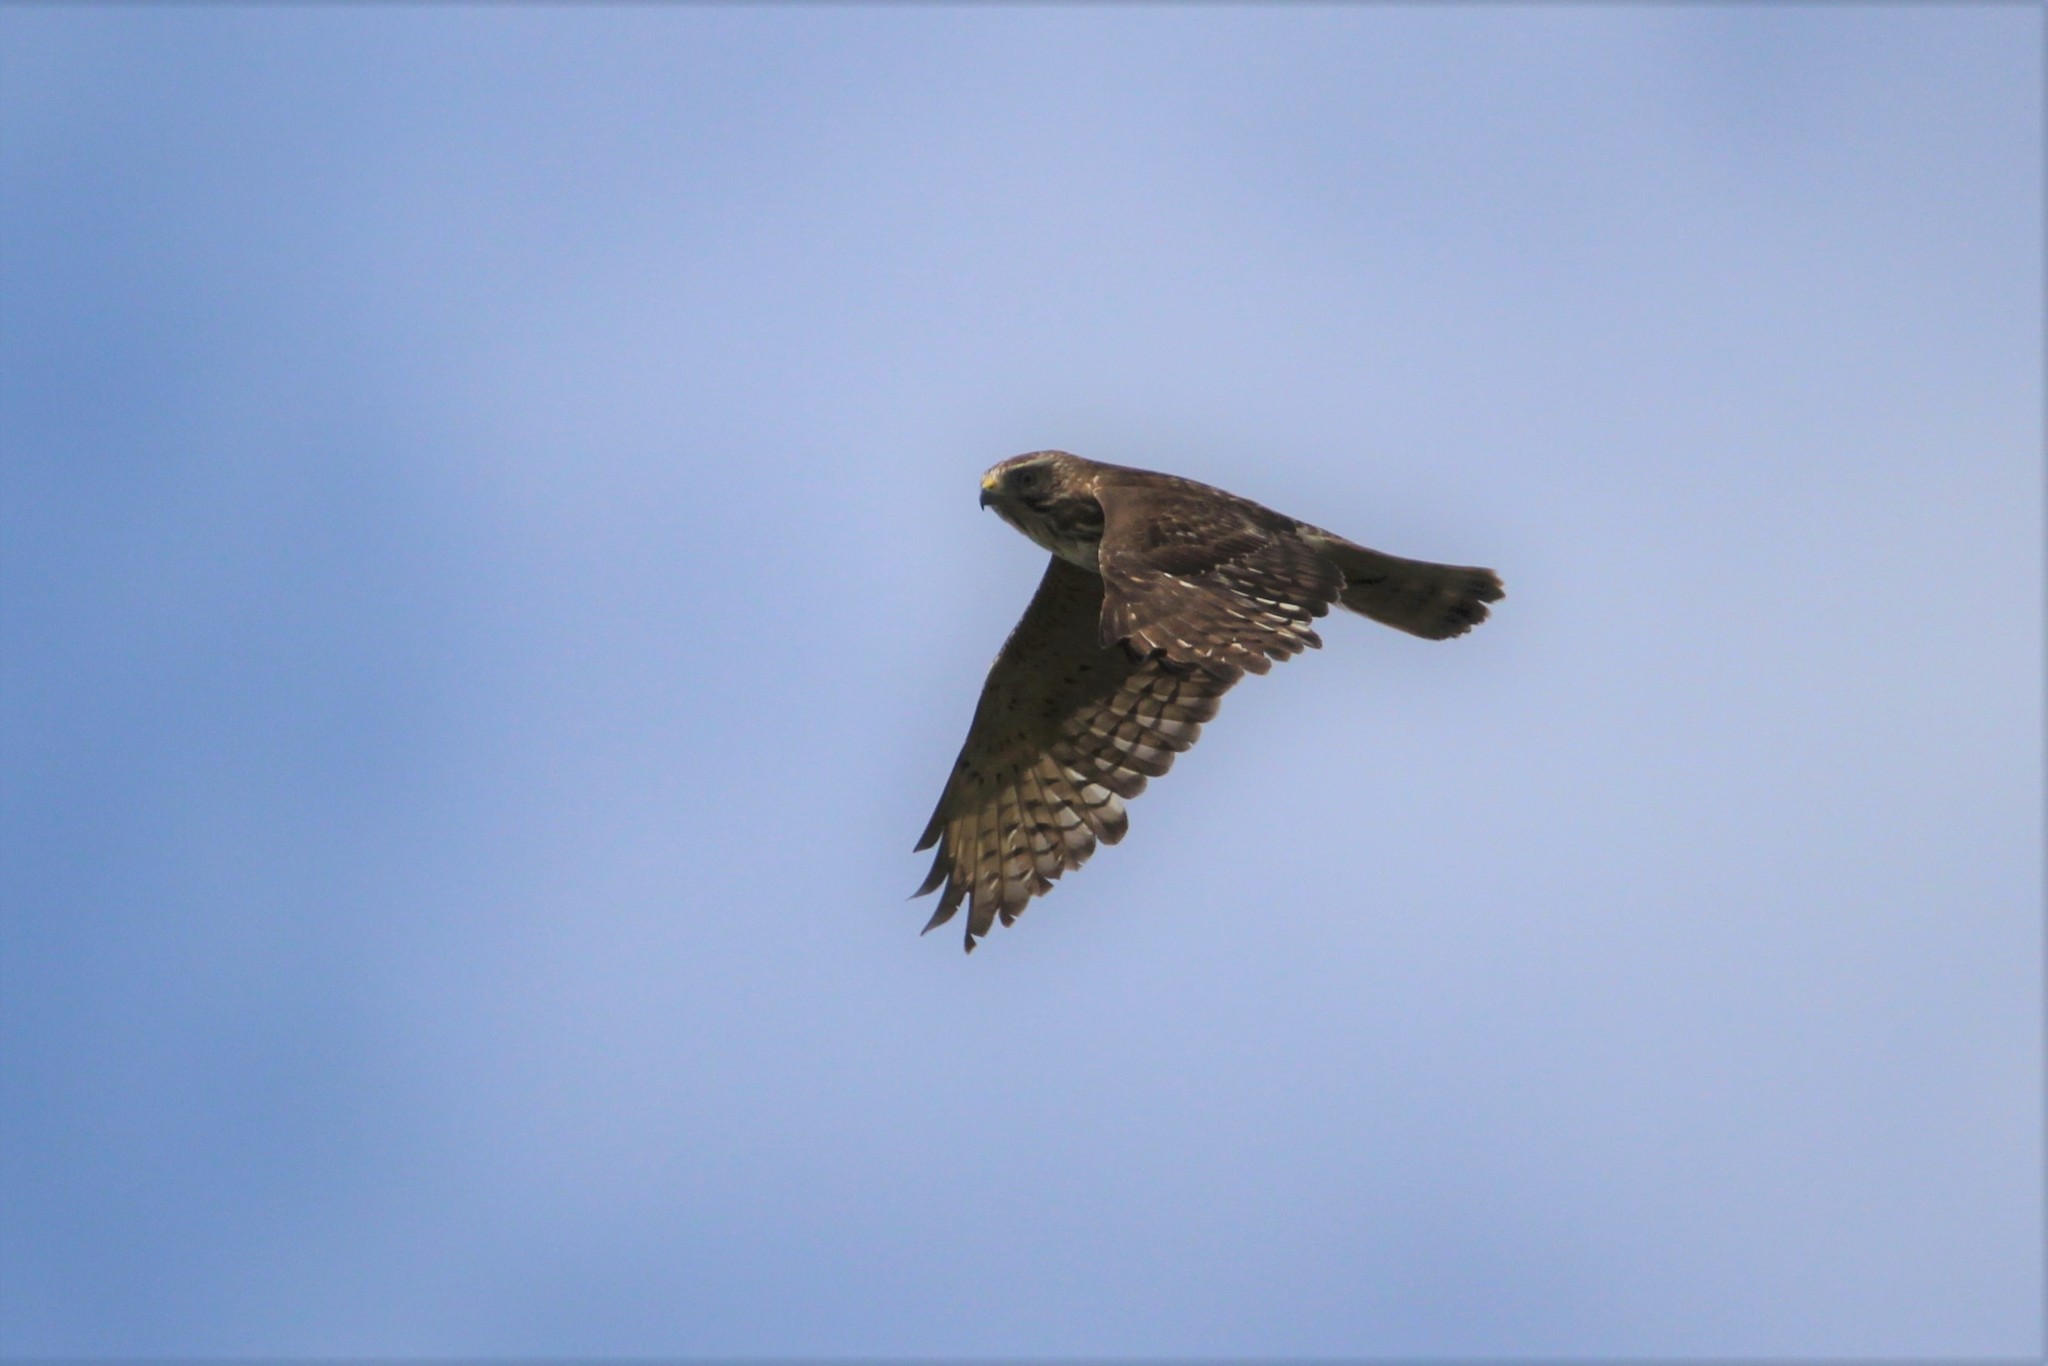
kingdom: Animalia
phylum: Chordata
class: Aves
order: Accipitriformes
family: Accipitridae
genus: Buteo
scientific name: Buteo platypterus
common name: Broad-winged hawk
